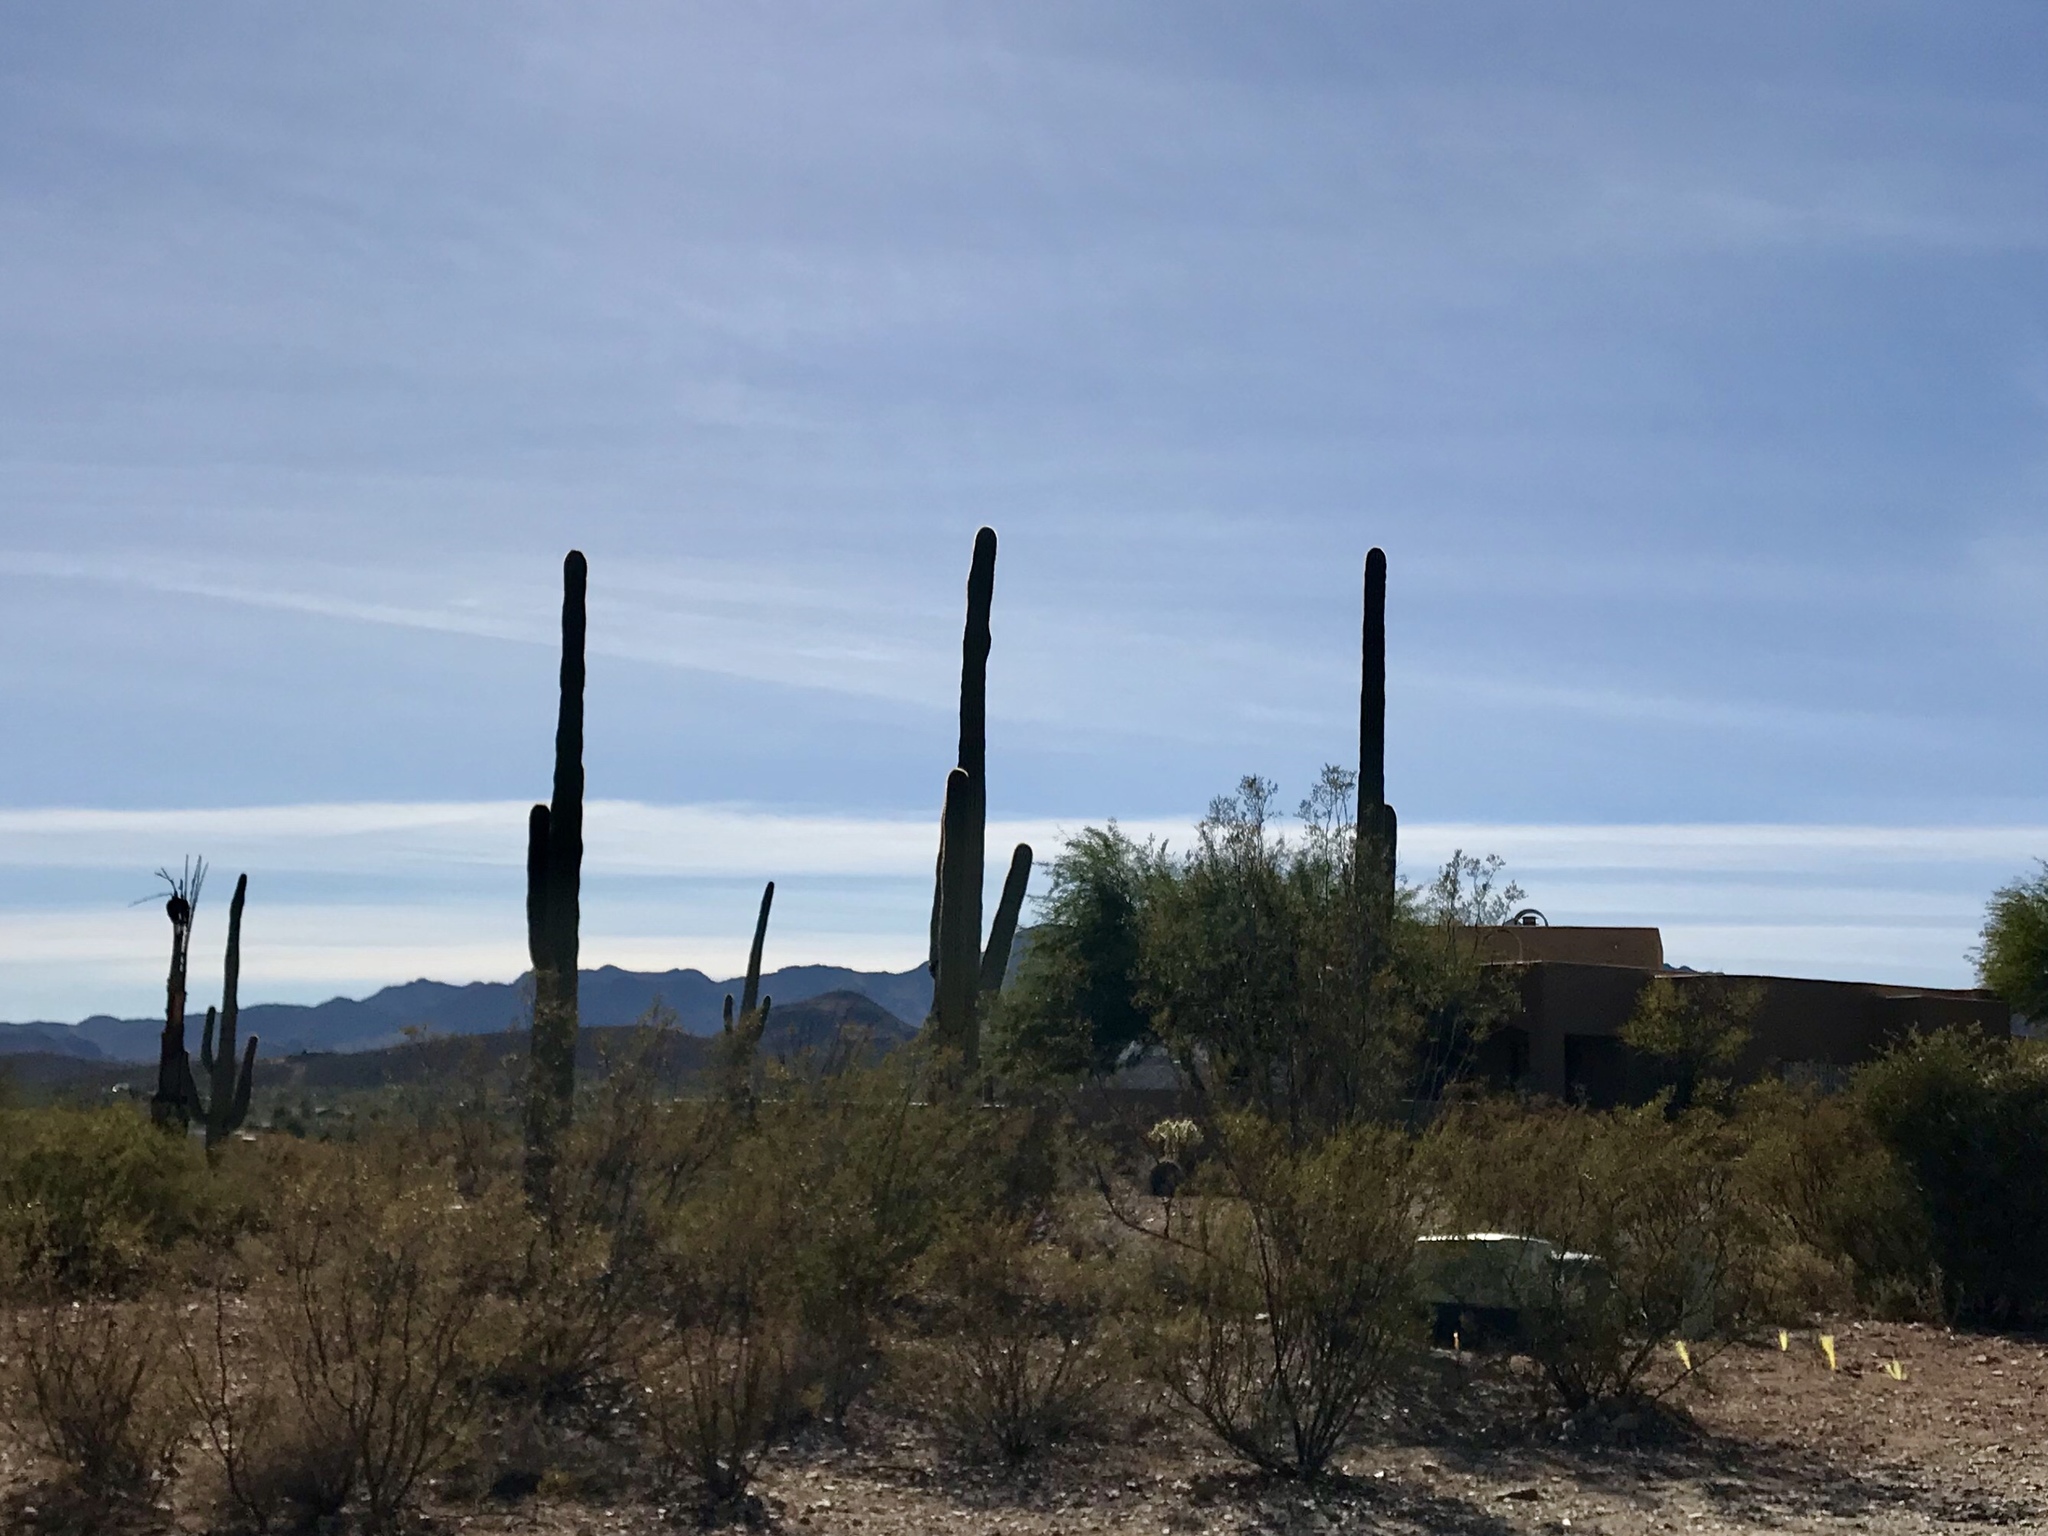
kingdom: Plantae
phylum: Tracheophyta
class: Magnoliopsida
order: Caryophyllales
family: Cactaceae
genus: Carnegiea
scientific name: Carnegiea gigantea
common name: Saguaro
